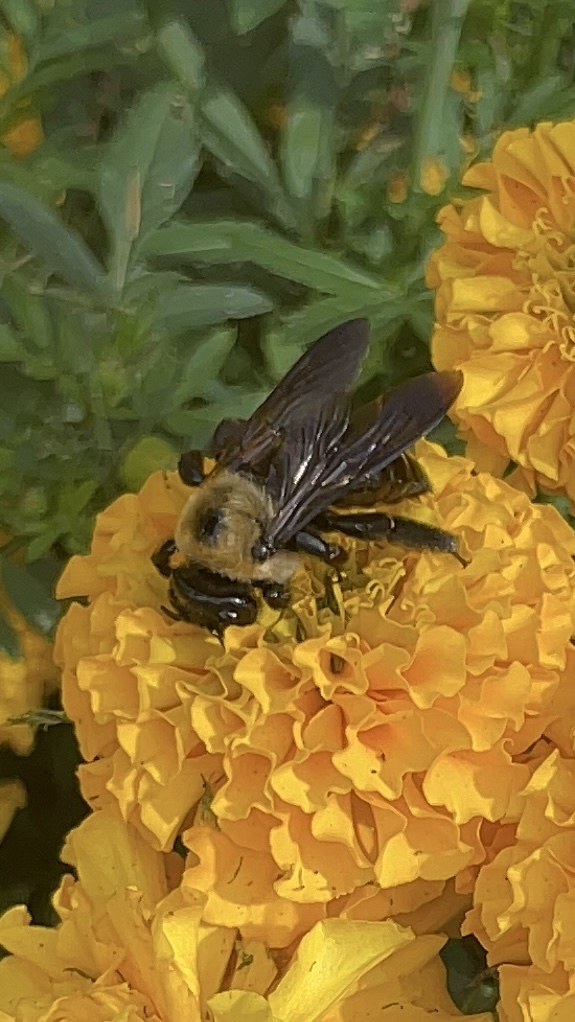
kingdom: Animalia
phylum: Arthropoda
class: Insecta
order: Hymenoptera
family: Apidae
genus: Xylocopa
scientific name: Xylocopa virginica
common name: Carpenter bee
